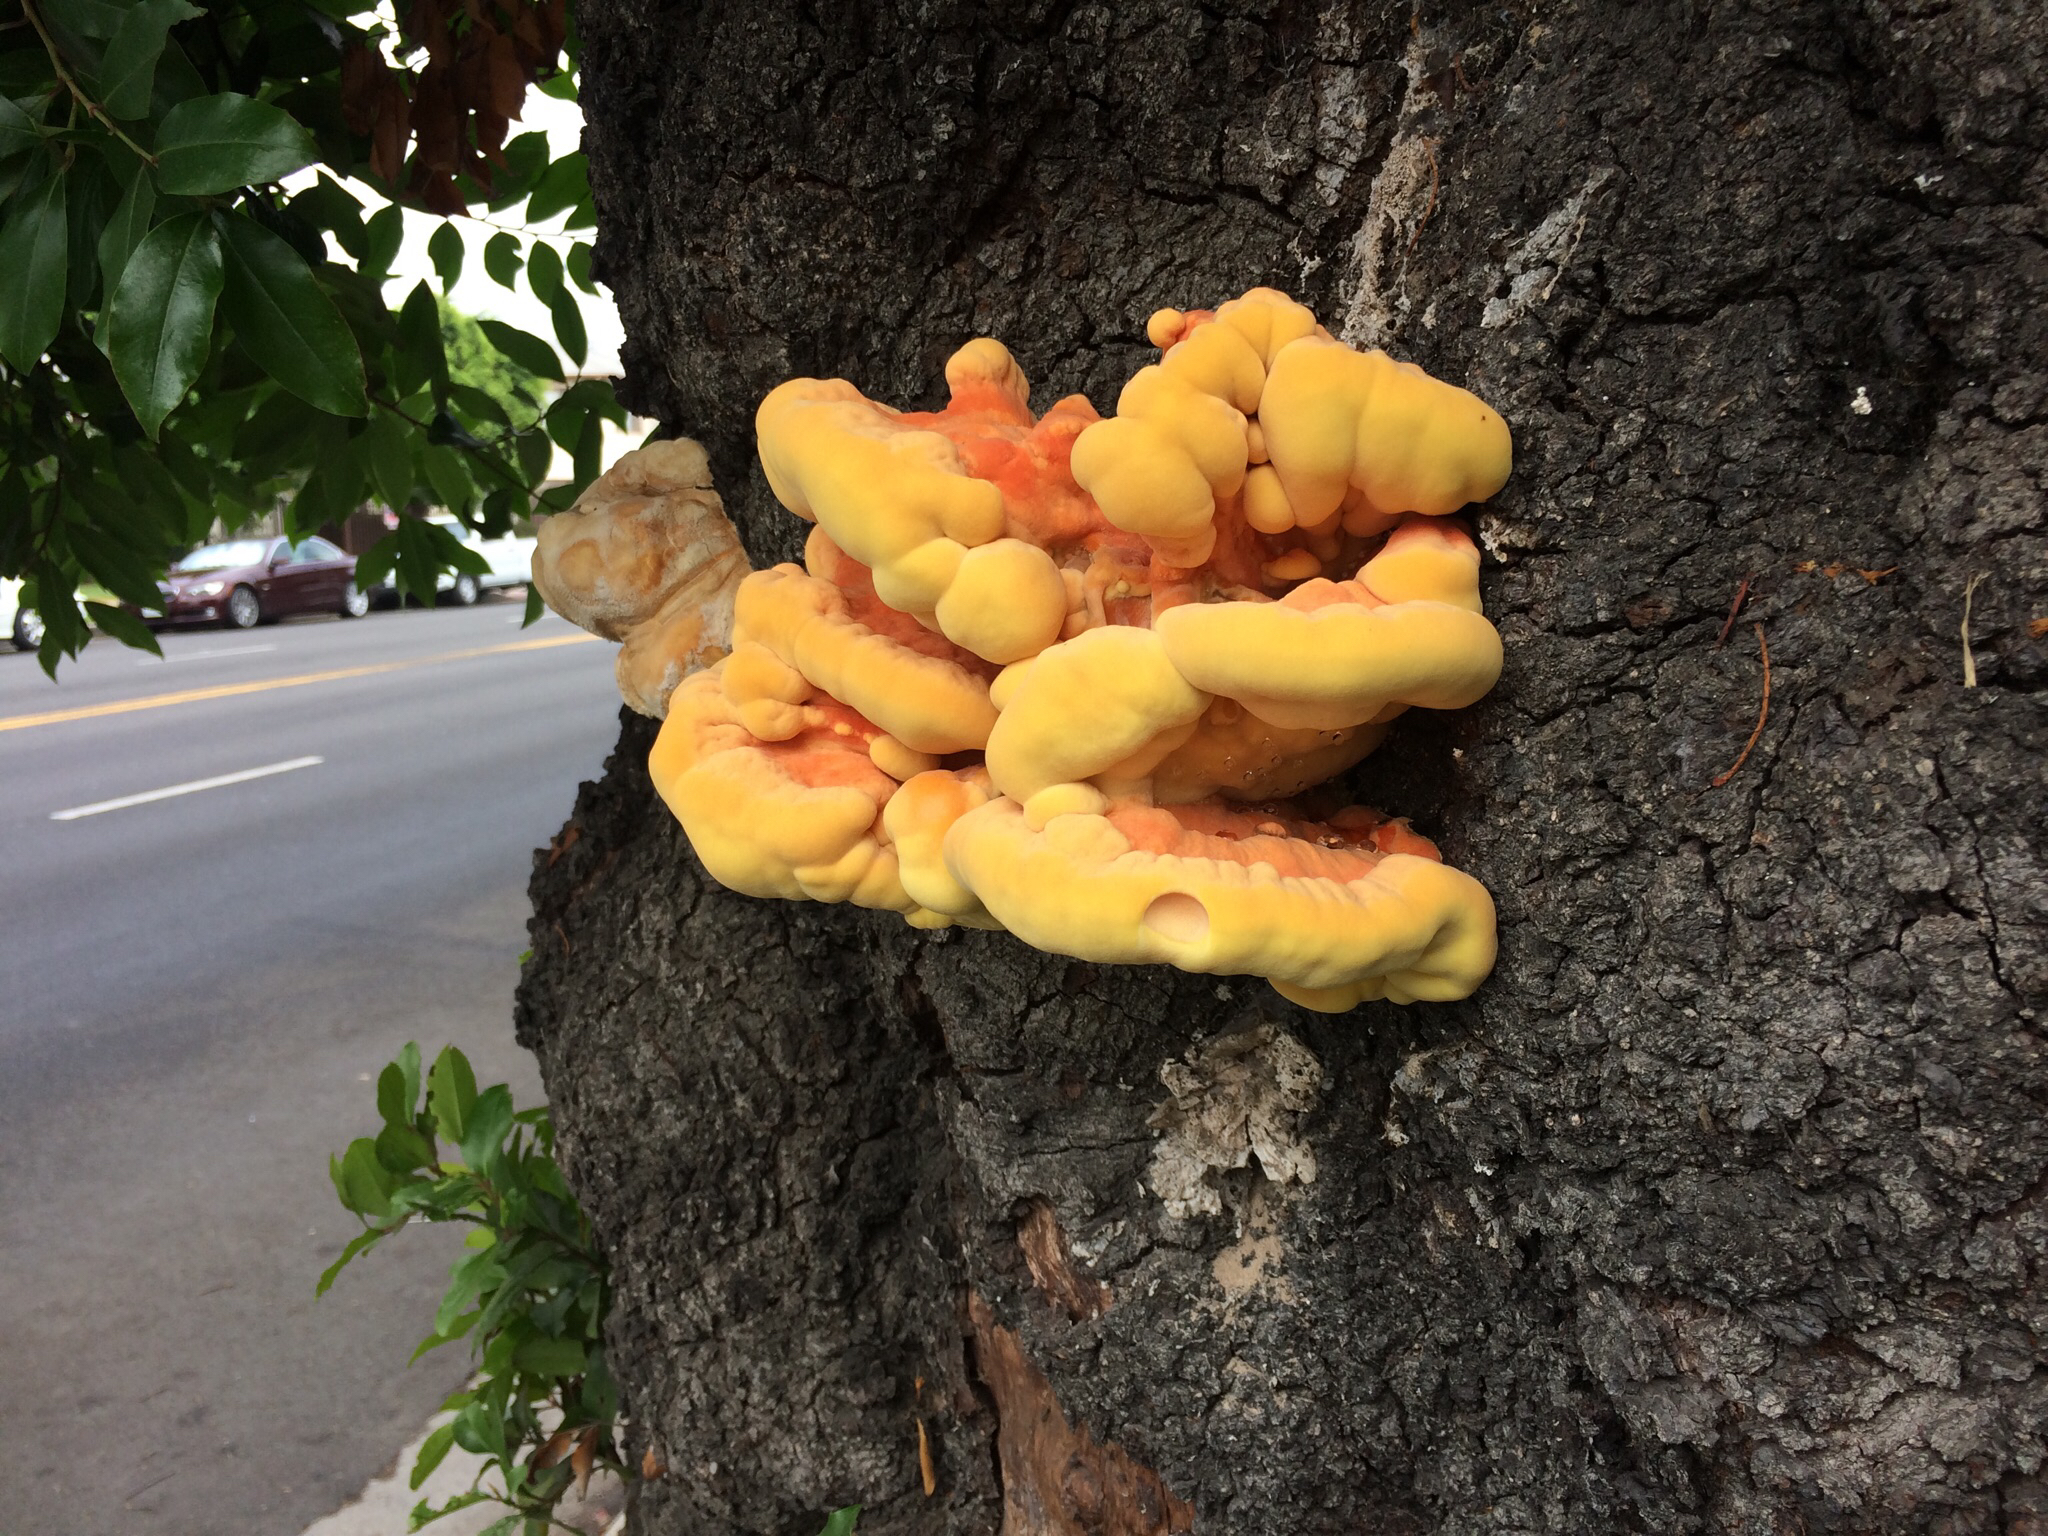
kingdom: Fungi
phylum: Basidiomycota
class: Agaricomycetes
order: Polyporales
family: Laetiporaceae
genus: Laetiporus
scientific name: Laetiporus gilbertsonii
